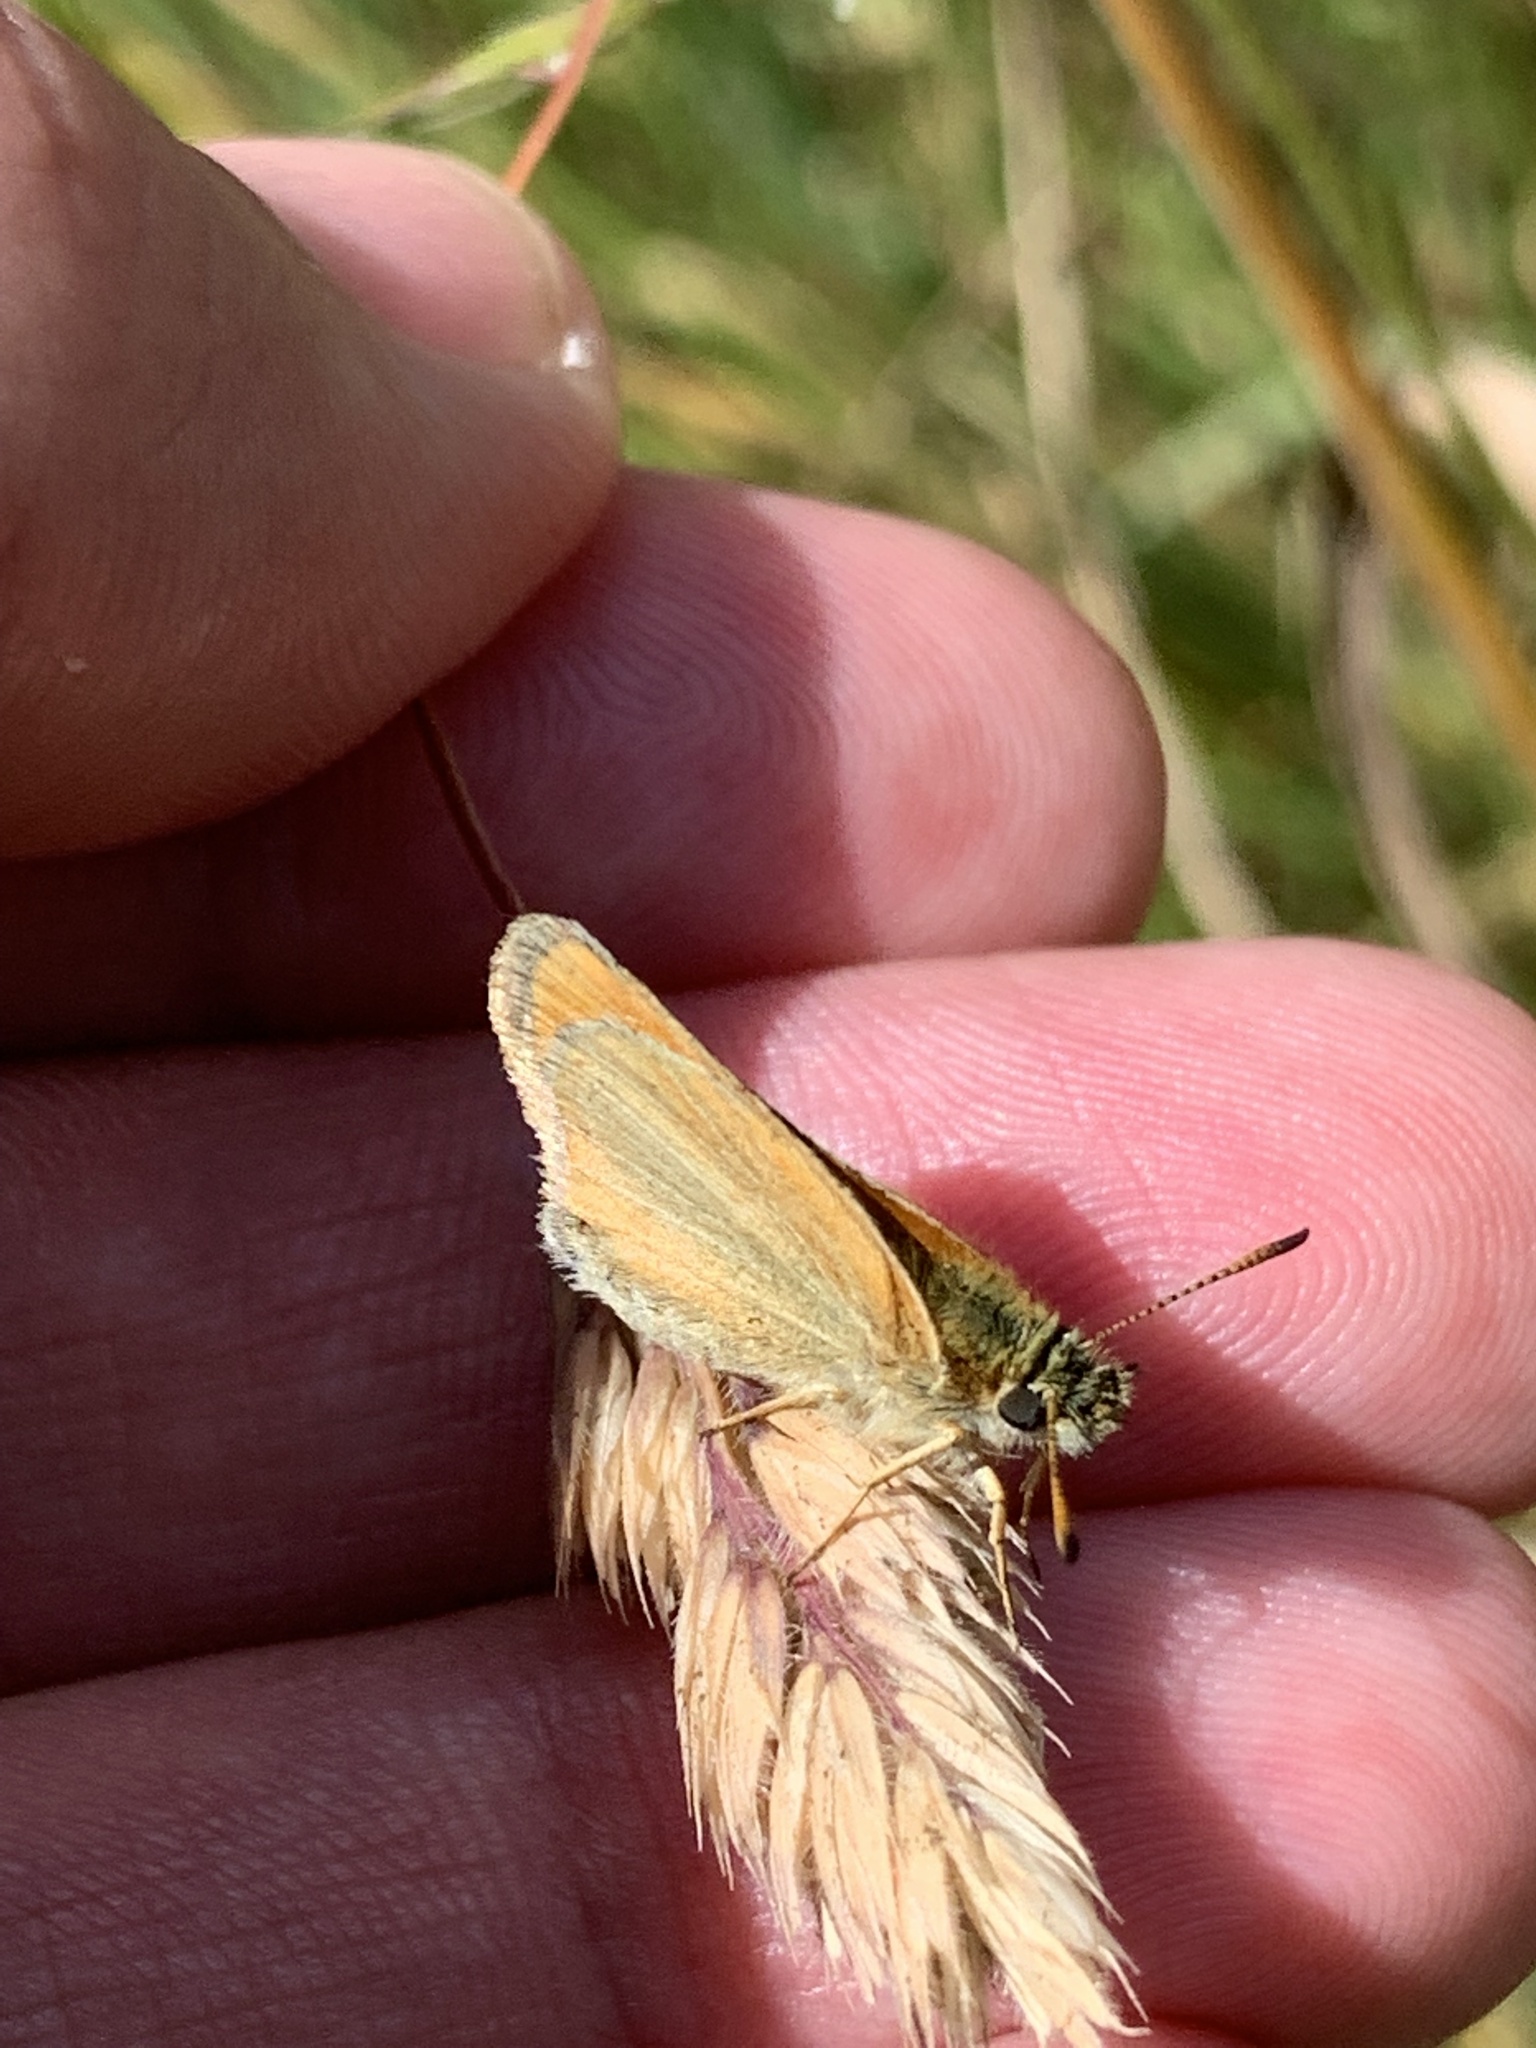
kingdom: Animalia
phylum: Arthropoda
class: Insecta
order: Lepidoptera
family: Hesperiidae
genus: Thymelicus
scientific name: Thymelicus lineola
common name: Essex skipper
